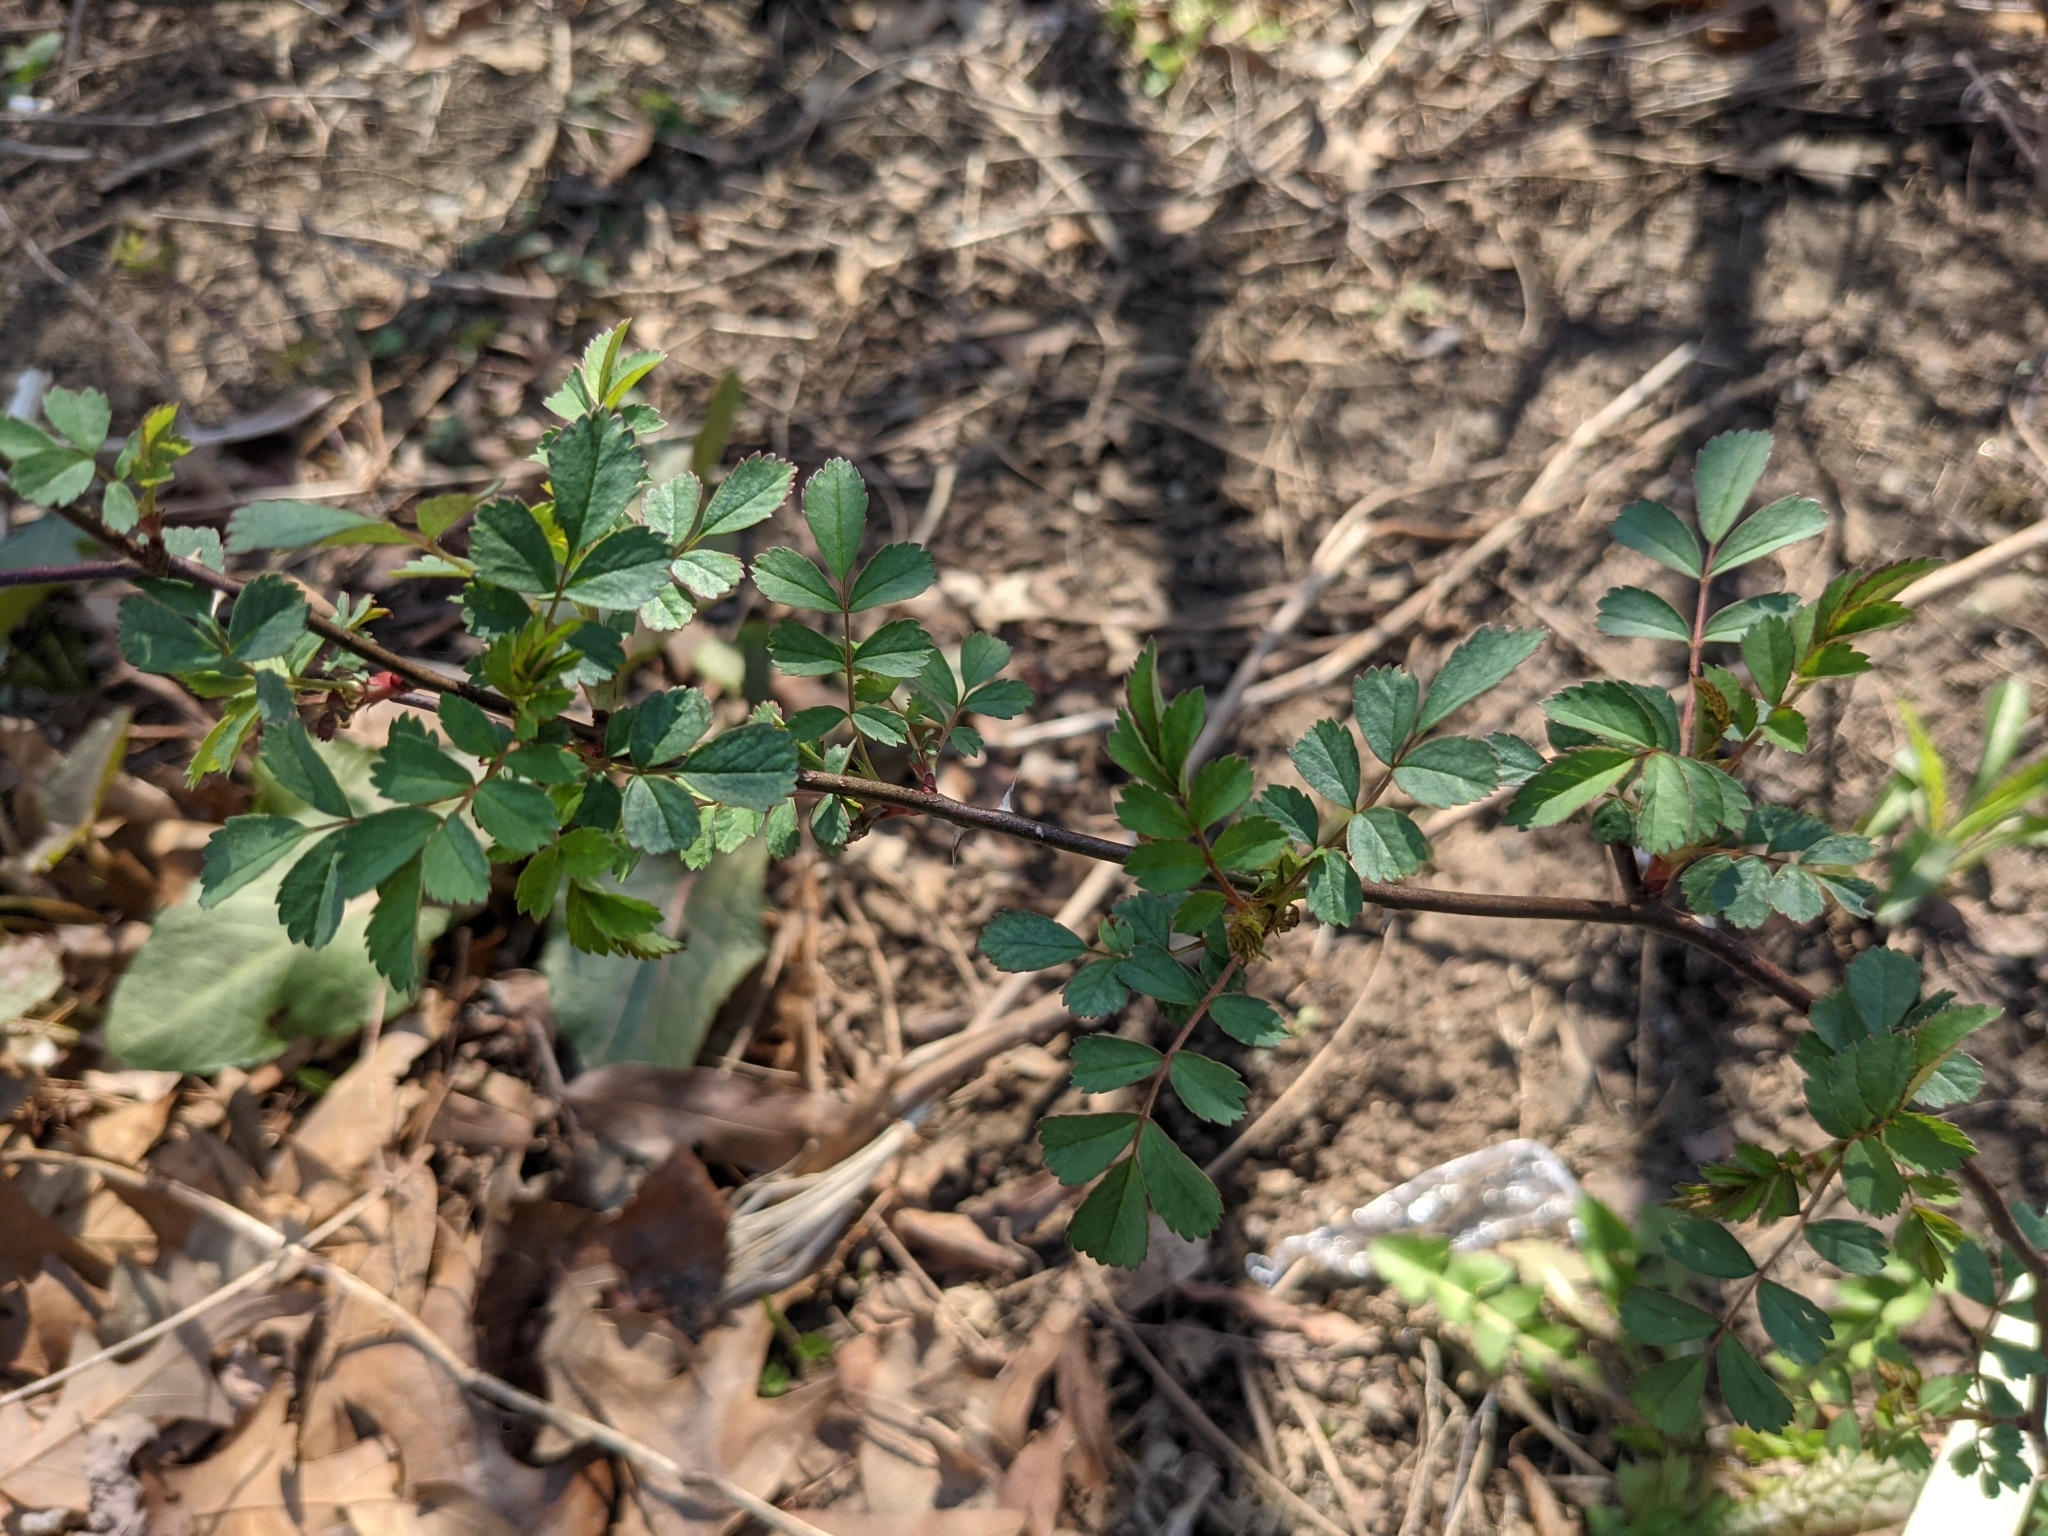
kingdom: Plantae
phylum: Tracheophyta
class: Magnoliopsida
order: Rosales
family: Rosaceae
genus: Rosa
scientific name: Rosa multiflora
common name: Multiflora rose
